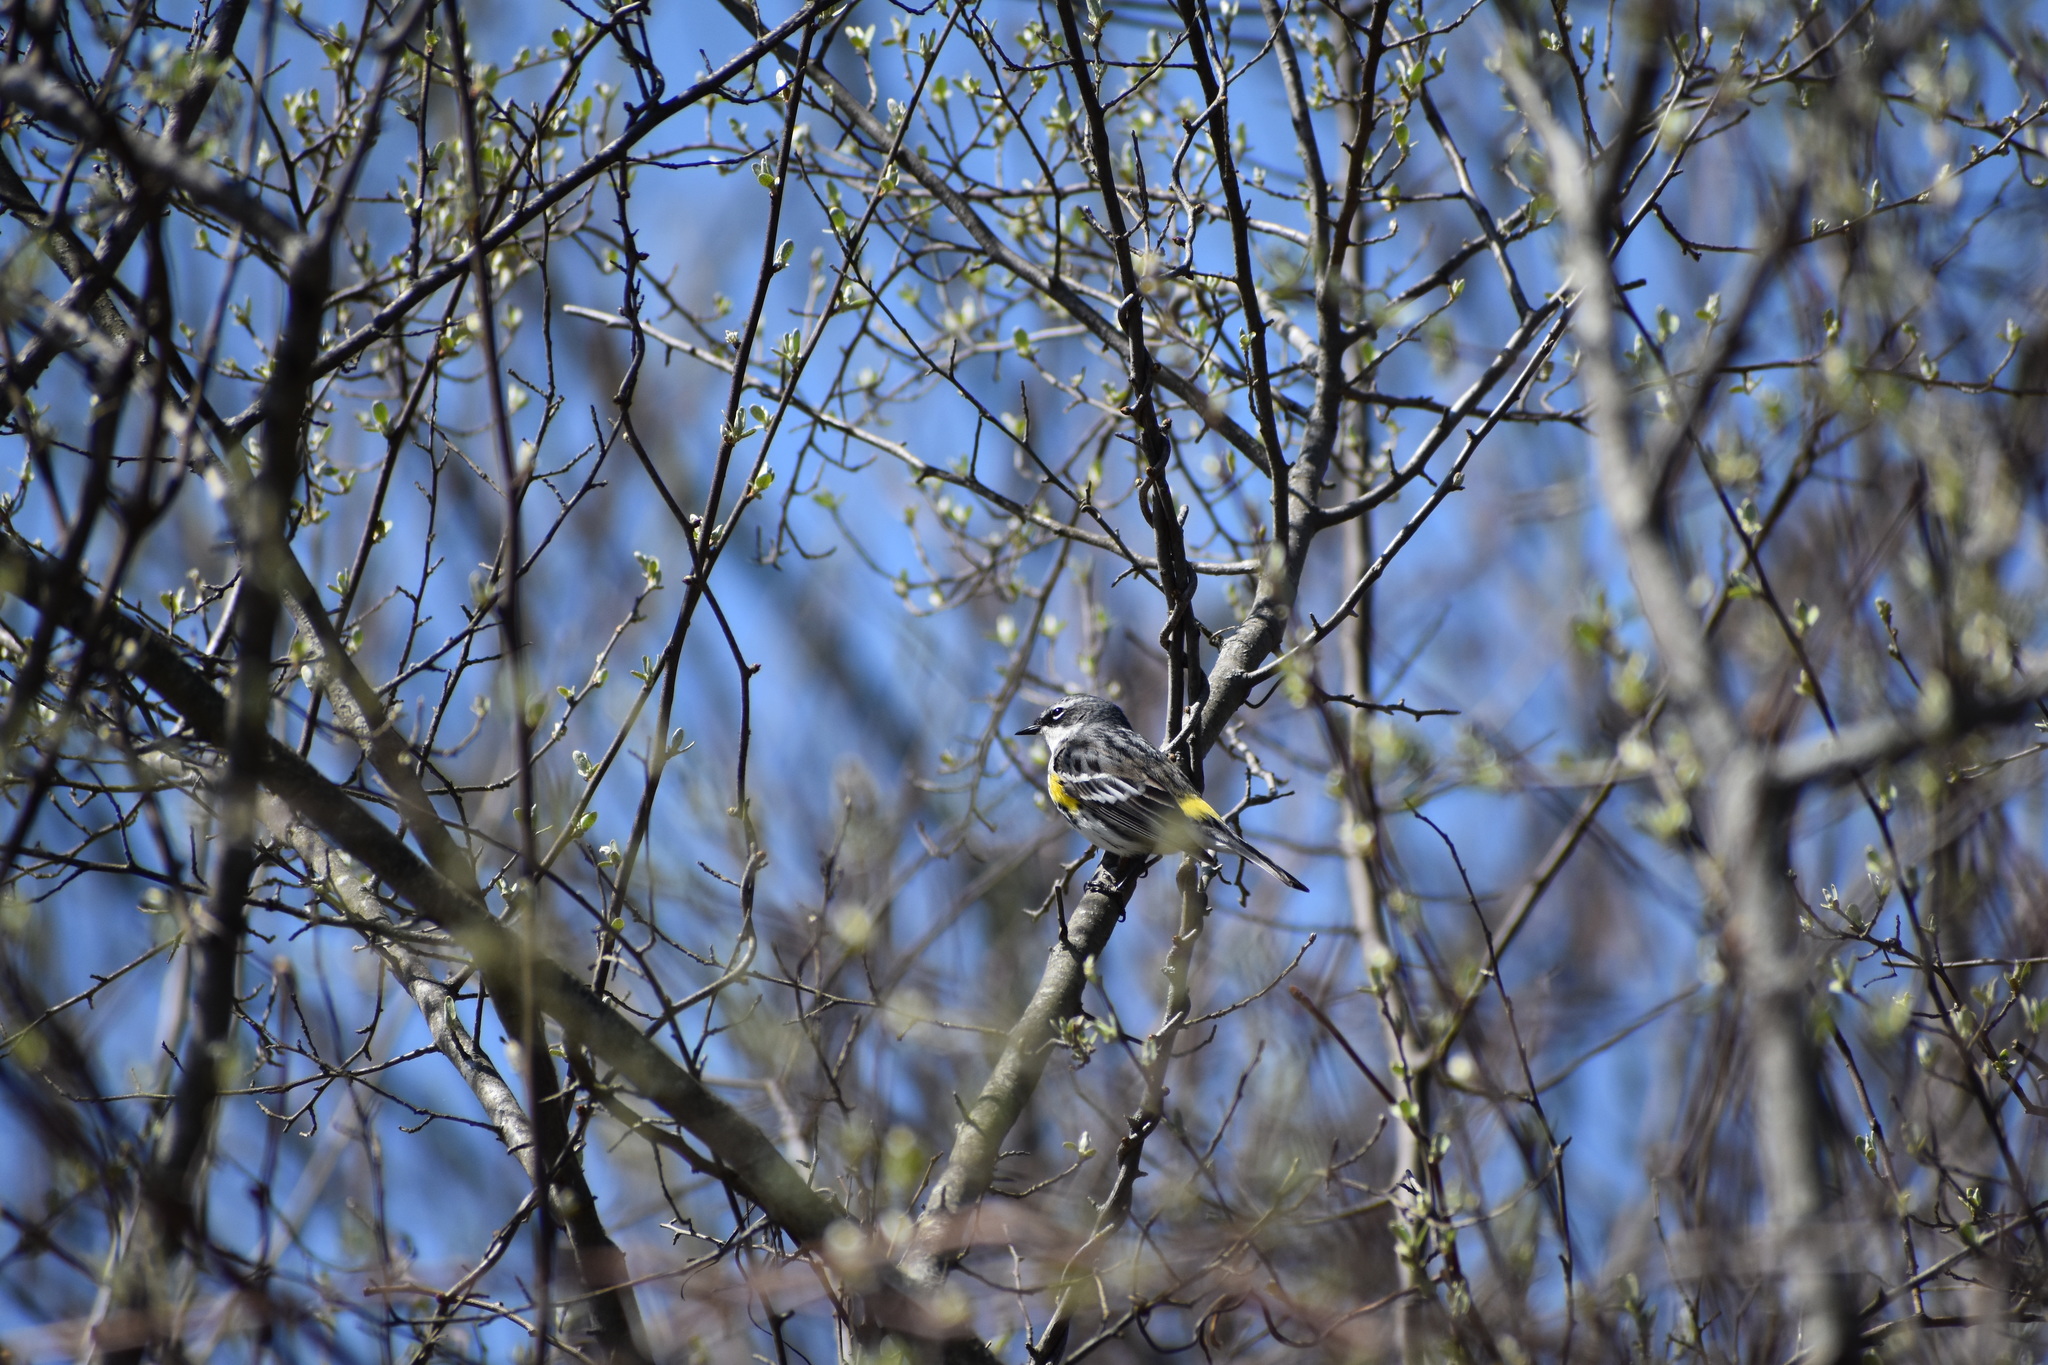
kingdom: Animalia
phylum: Chordata
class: Aves
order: Passeriformes
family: Parulidae
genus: Setophaga
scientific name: Setophaga coronata
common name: Myrtle warbler
